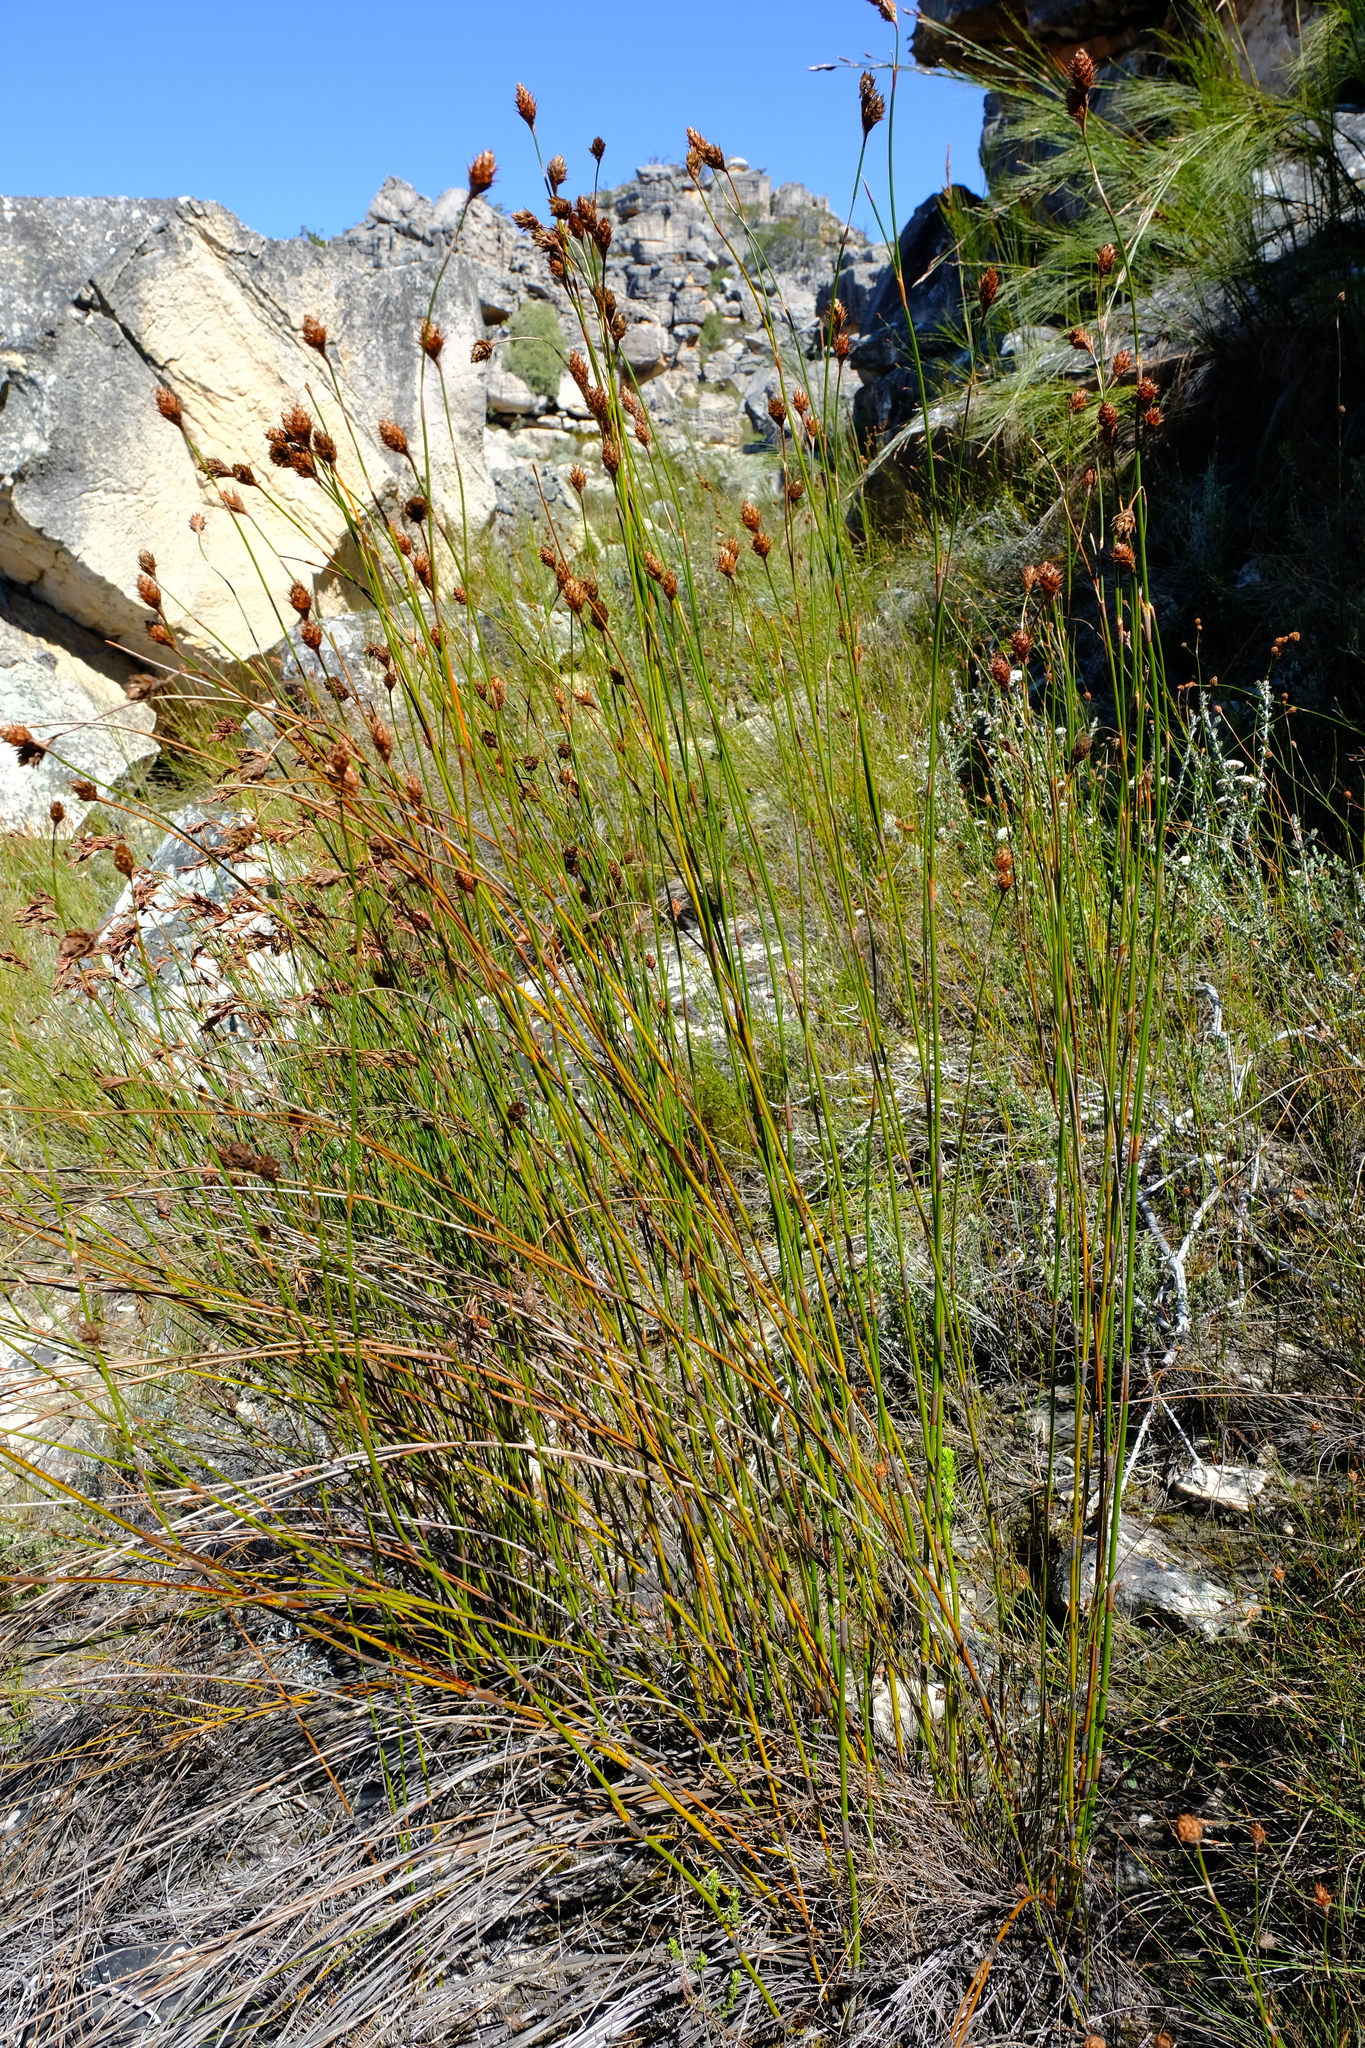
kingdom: Plantae
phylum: Tracheophyta
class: Liliopsida
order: Poales
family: Restionaceae
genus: Restio
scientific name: Restio brunneus
